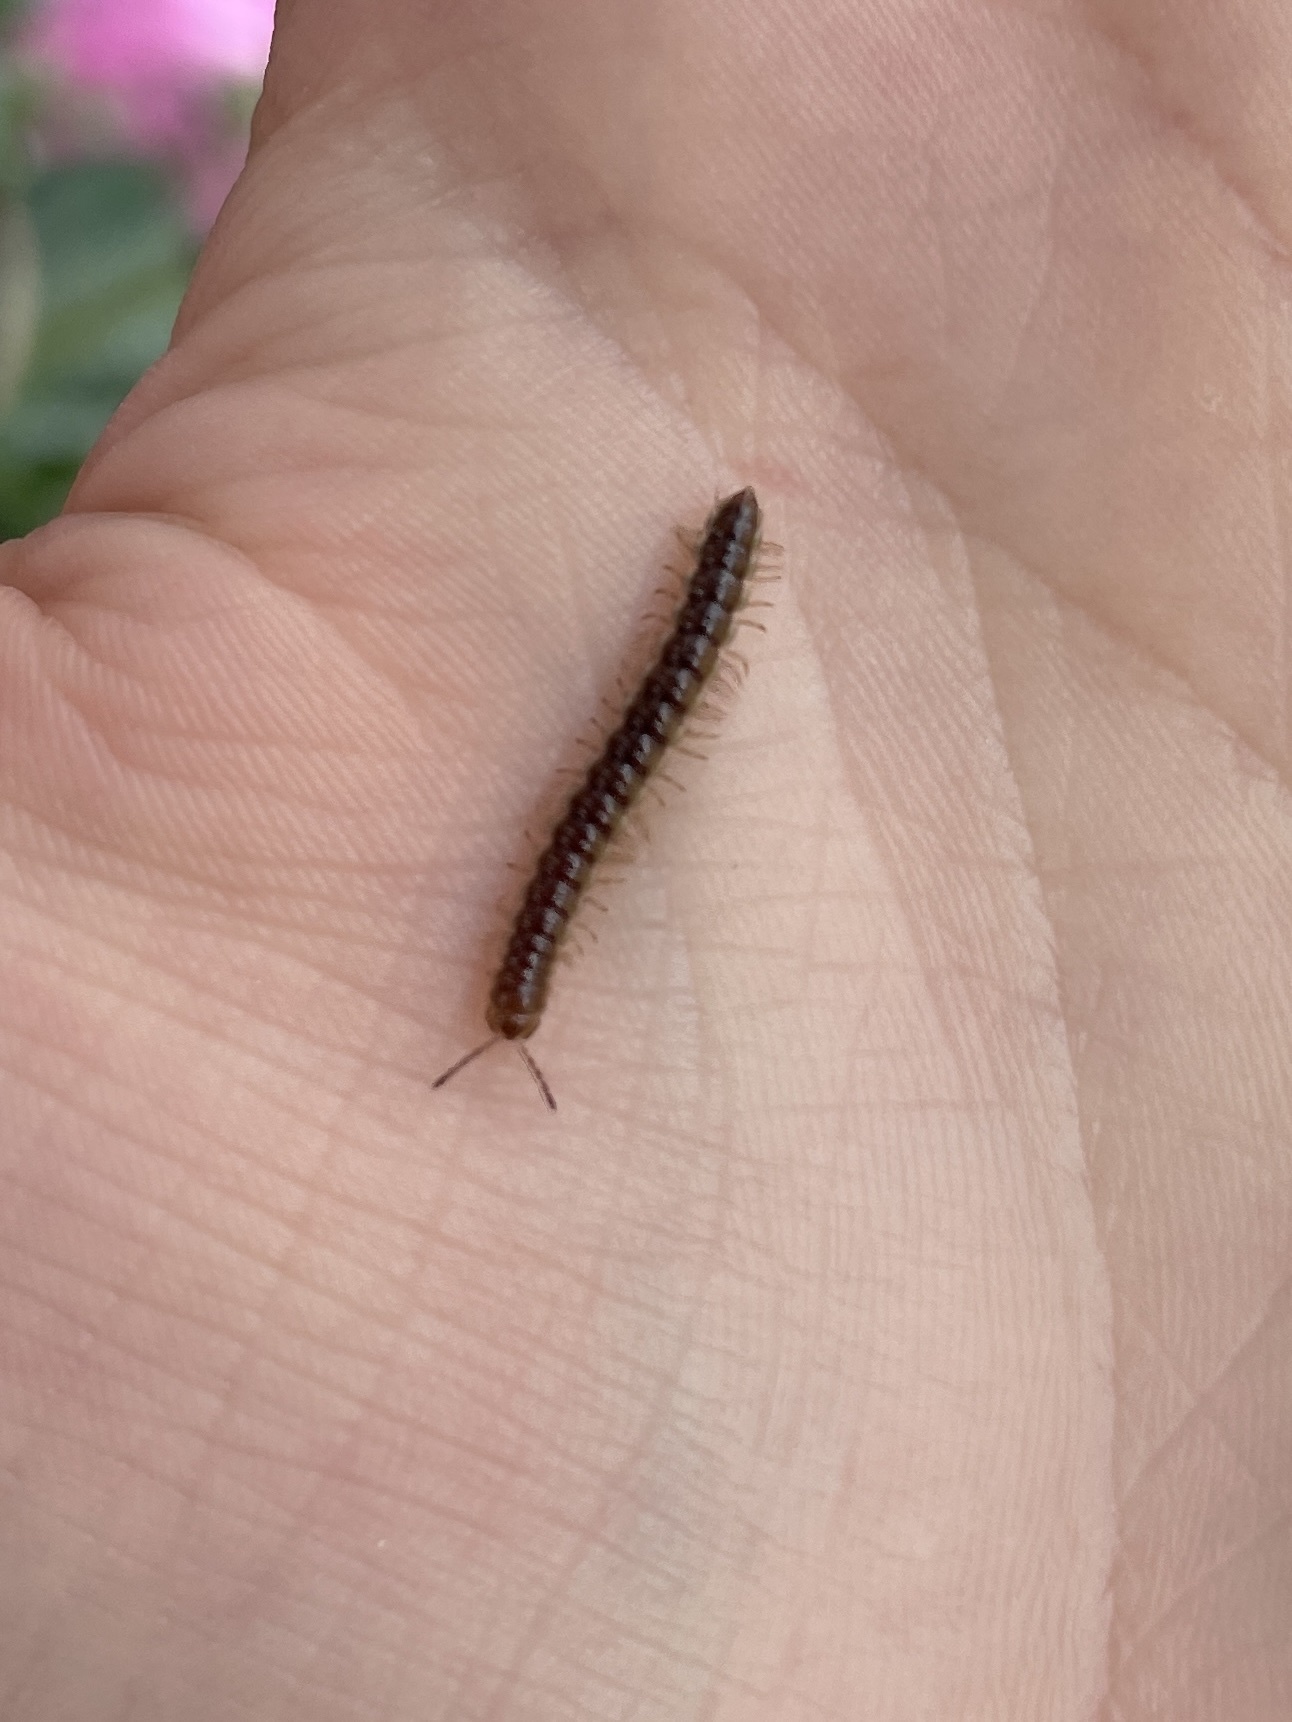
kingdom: Animalia
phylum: Arthropoda
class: Diplopoda
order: Polydesmida
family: Paradoxosomatidae
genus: Oxidus
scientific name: Oxidus gracilis
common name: Greenhouse millipede
